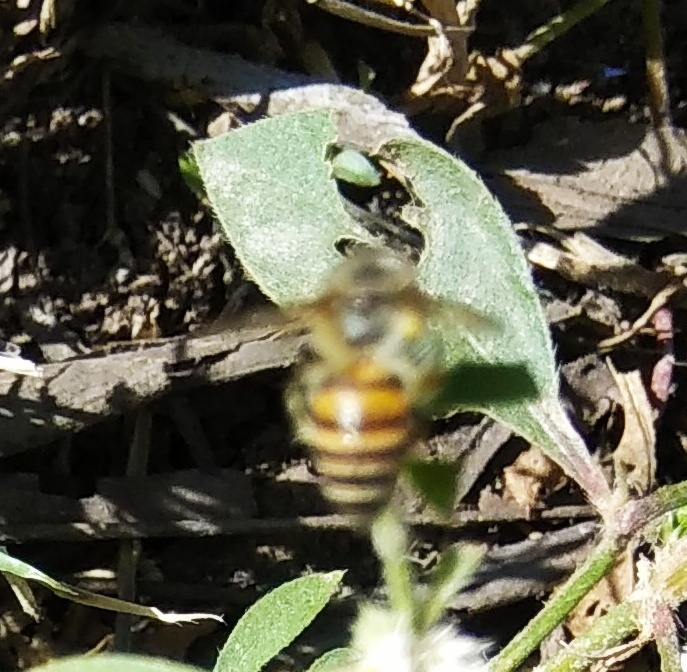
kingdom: Animalia
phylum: Arthropoda
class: Insecta
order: Hymenoptera
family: Apidae
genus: Apis
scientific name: Apis cerana
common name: Honey bee
